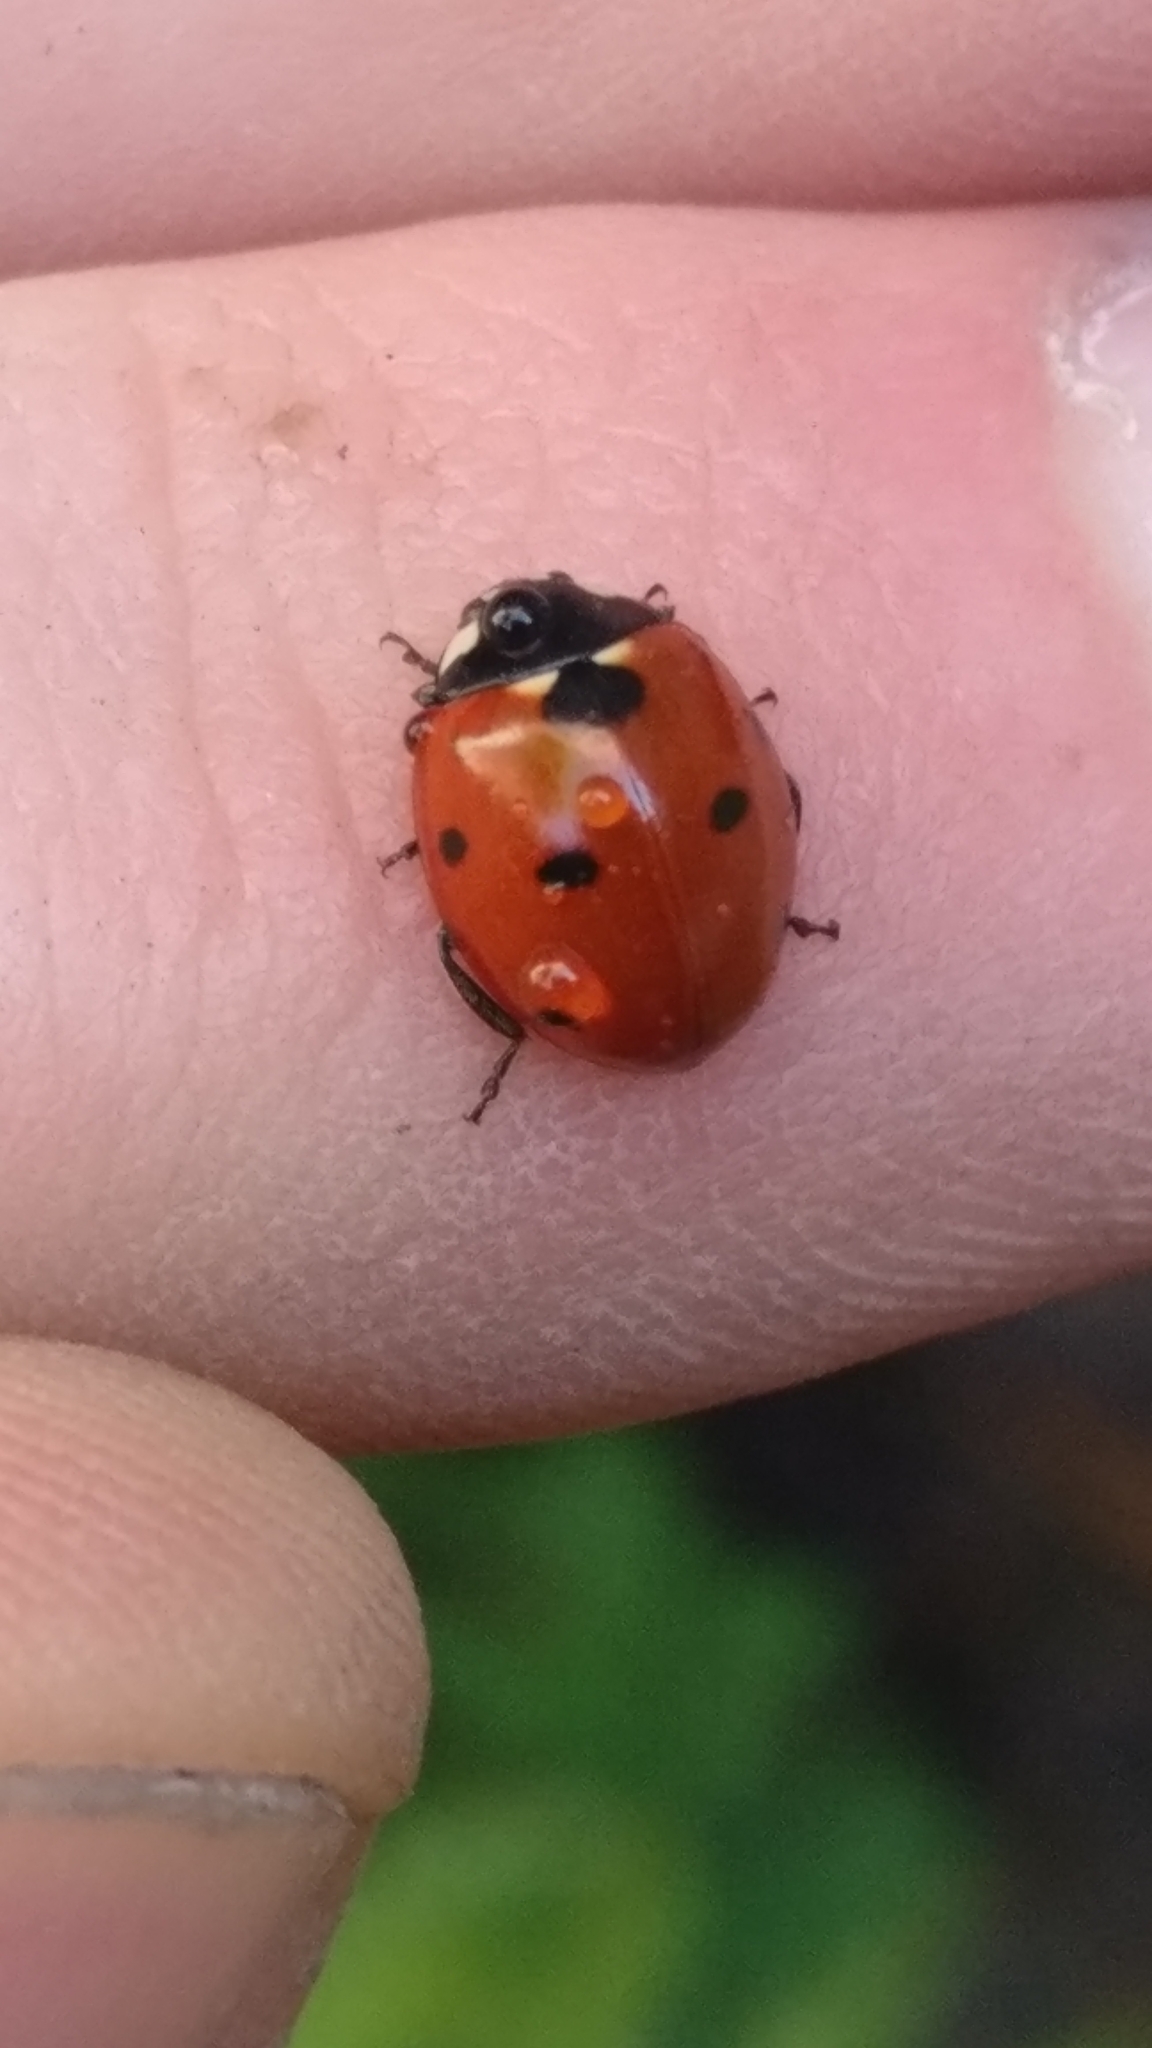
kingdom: Animalia
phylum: Arthropoda
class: Insecta
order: Coleoptera
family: Coccinellidae
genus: Coccinella
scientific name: Coccinella septempunctata
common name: Sevenspotted lady beetle
